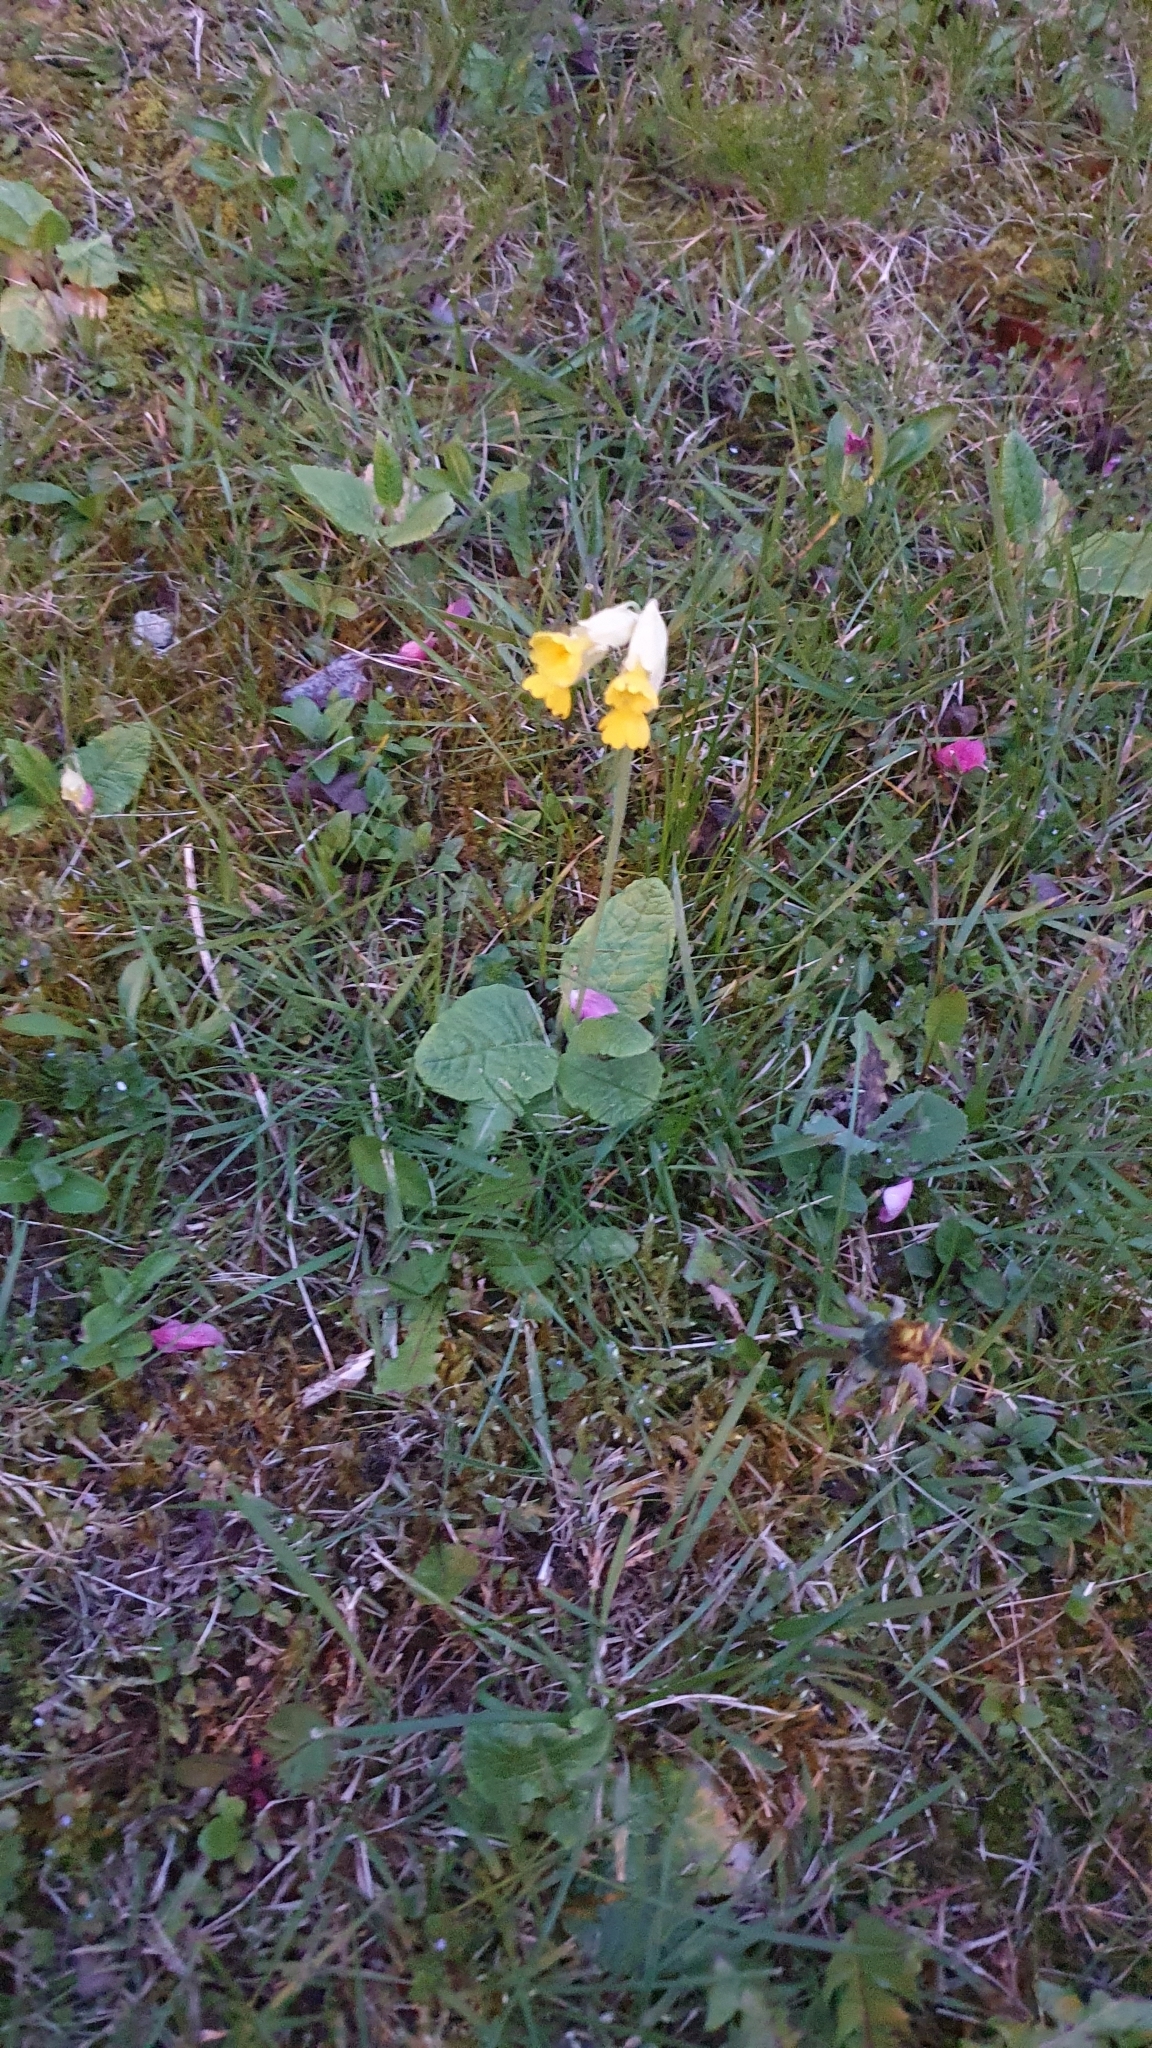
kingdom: Plantae
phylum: Tracheophyta
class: Magnoliopsida
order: Ericales
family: Primulaceae
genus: Primula
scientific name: Primula veris
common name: Cowslip
